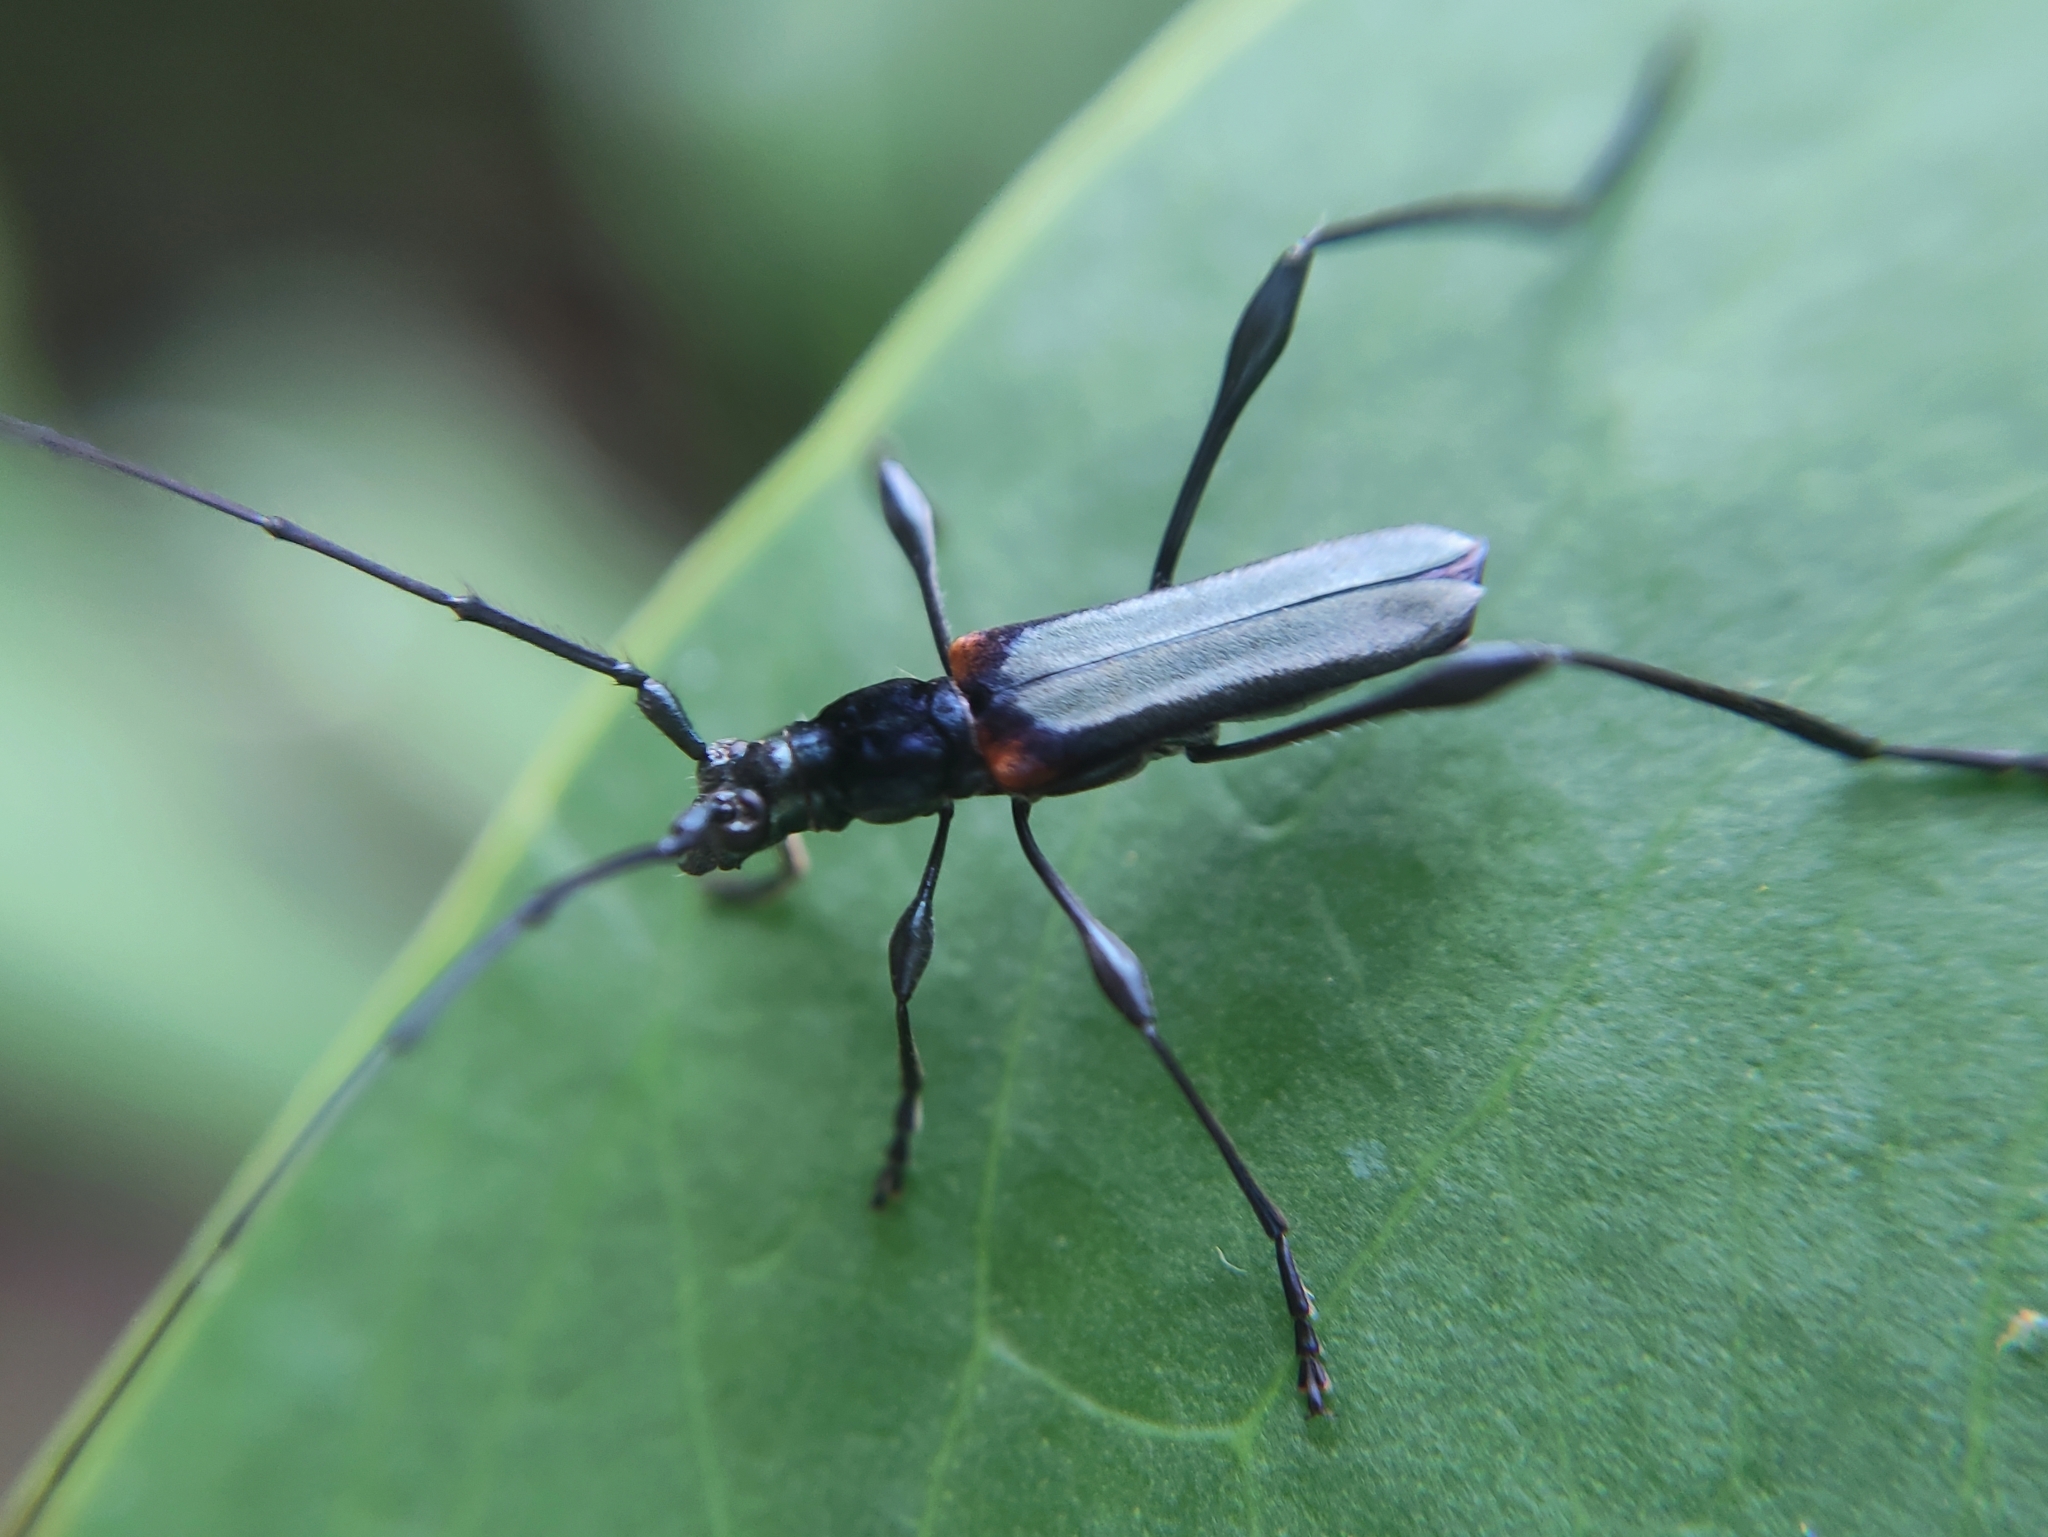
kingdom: Animalia
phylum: Arthropoda
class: Insecta
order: Coleoptera
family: Cerambycidae
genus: Gurubira
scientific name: Gurubira axillaris
